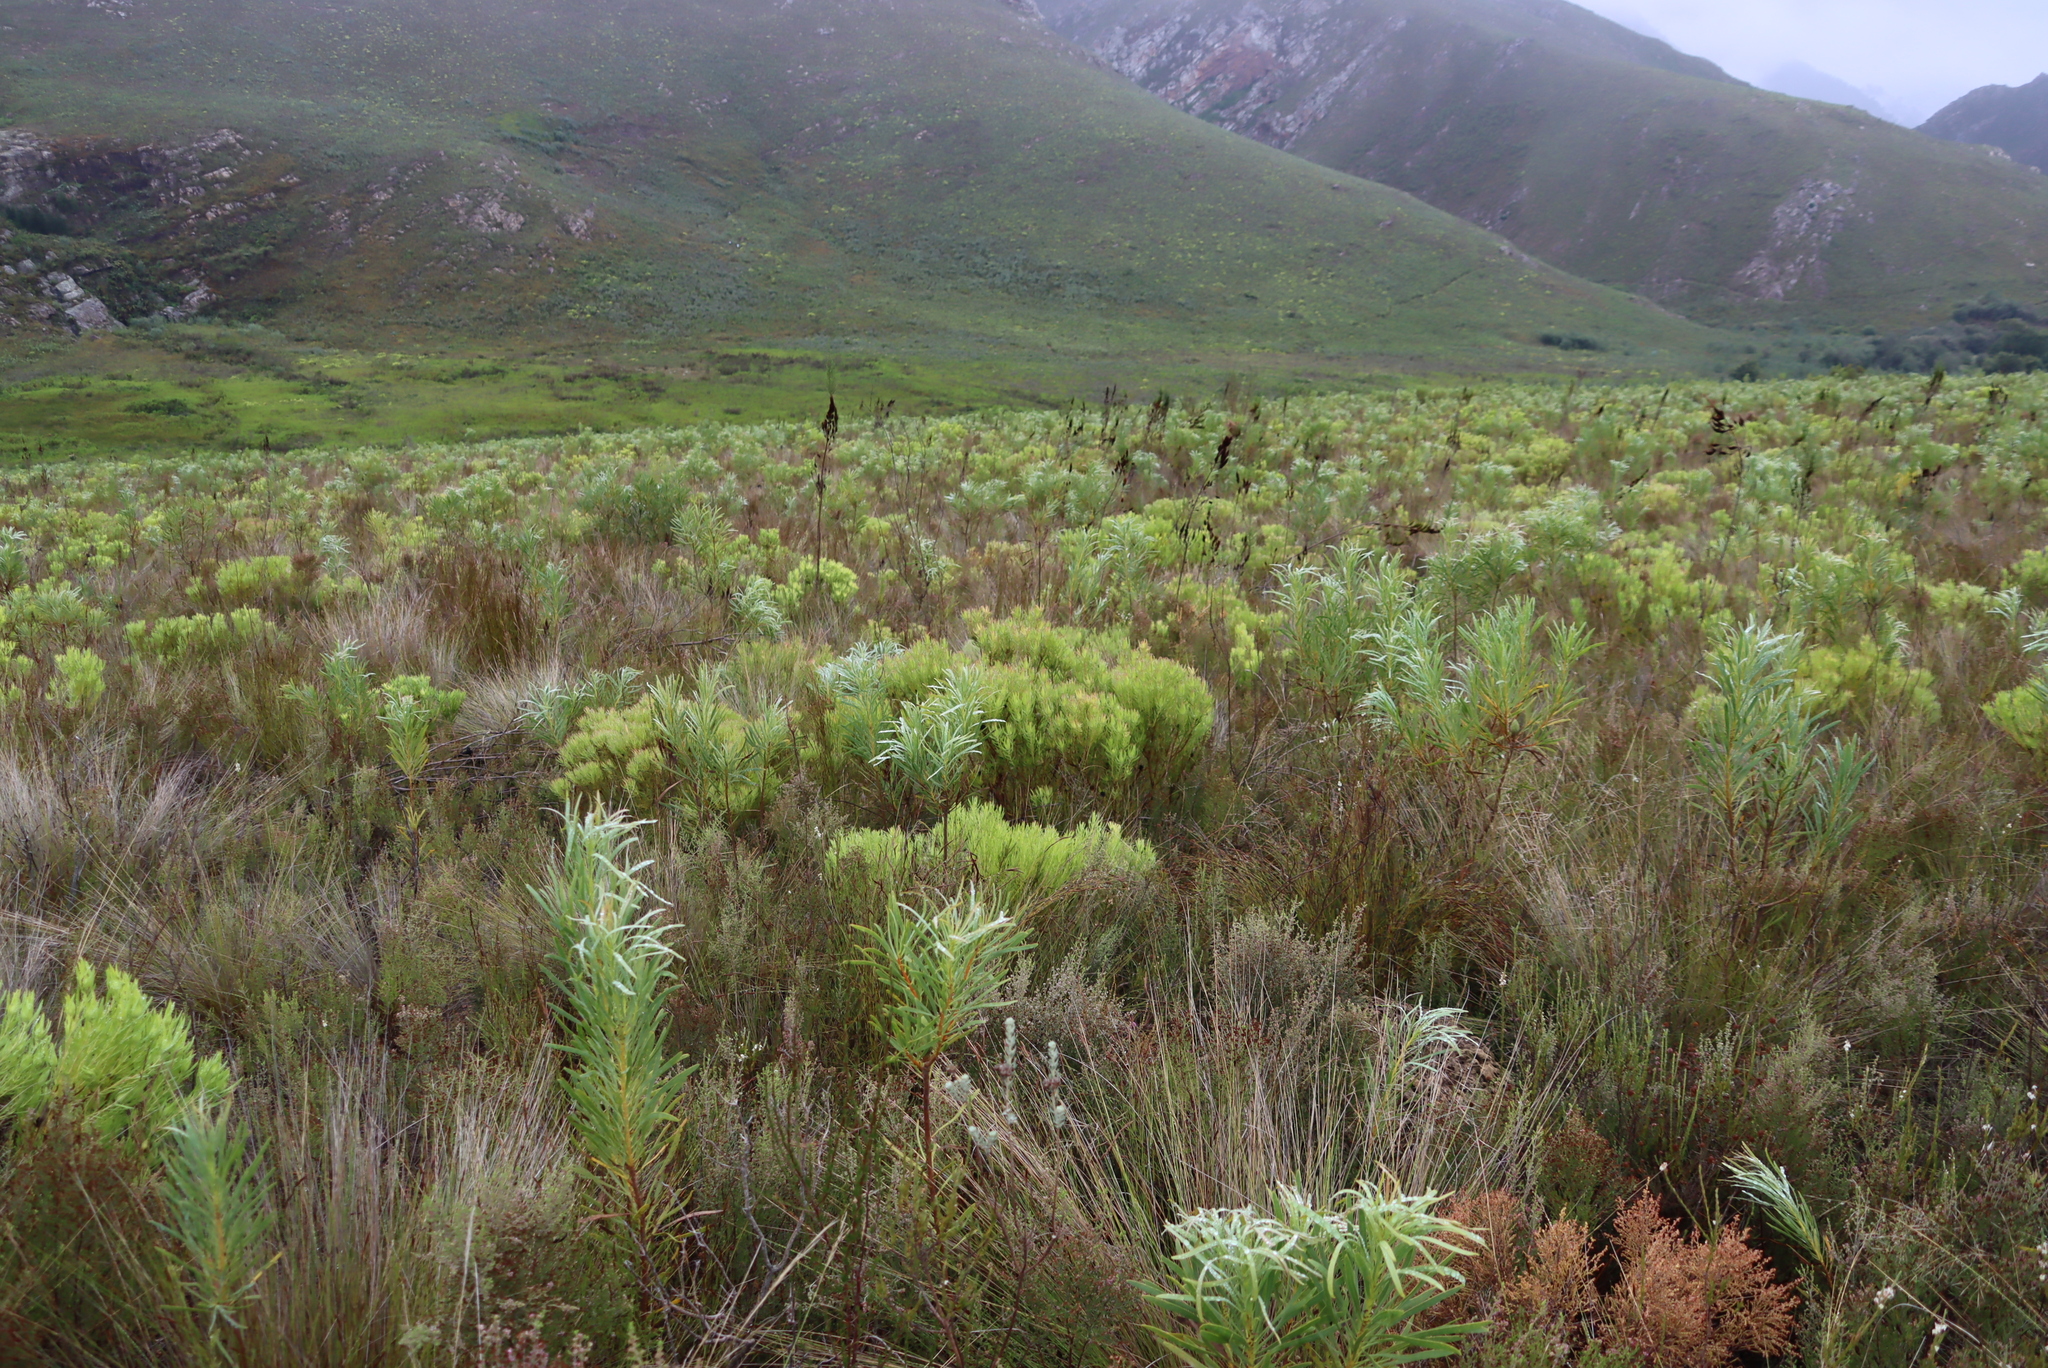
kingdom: Plantae
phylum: Tracheophyta
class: Magnoliopsida
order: Proteales
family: Proteaceae
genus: Protea
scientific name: Protea repens
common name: Sugarbush
